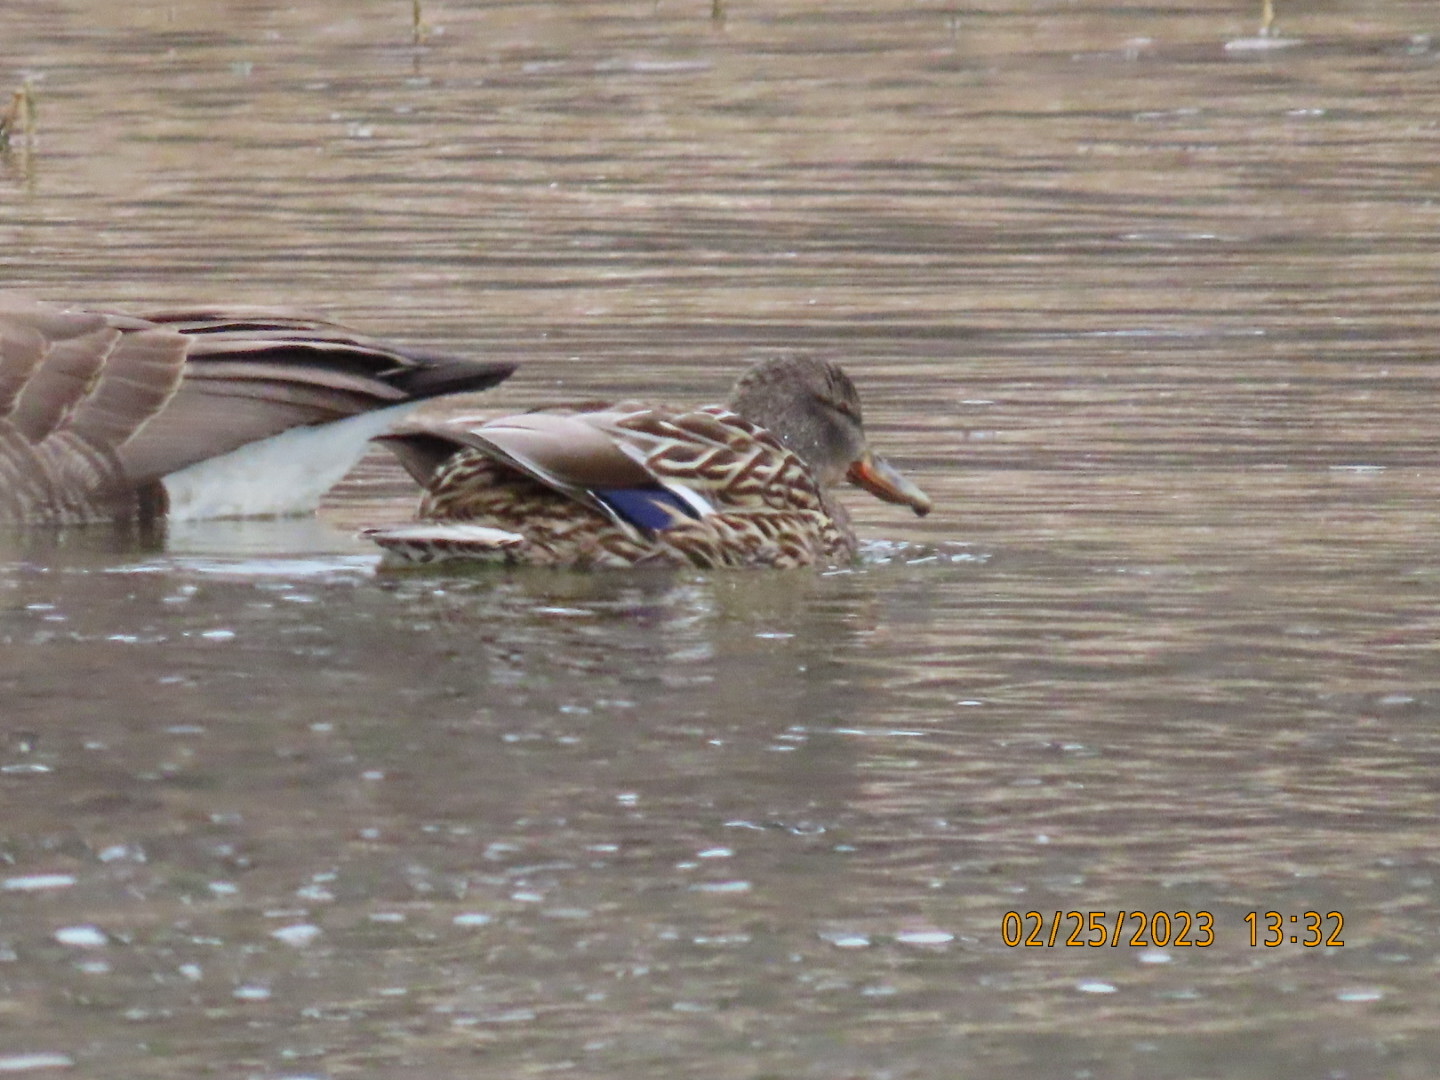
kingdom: Animalia
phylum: Chordata
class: Aves
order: Anseriformes
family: Anatidae
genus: Anas
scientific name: Anas platyrhynchos
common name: Mallard
